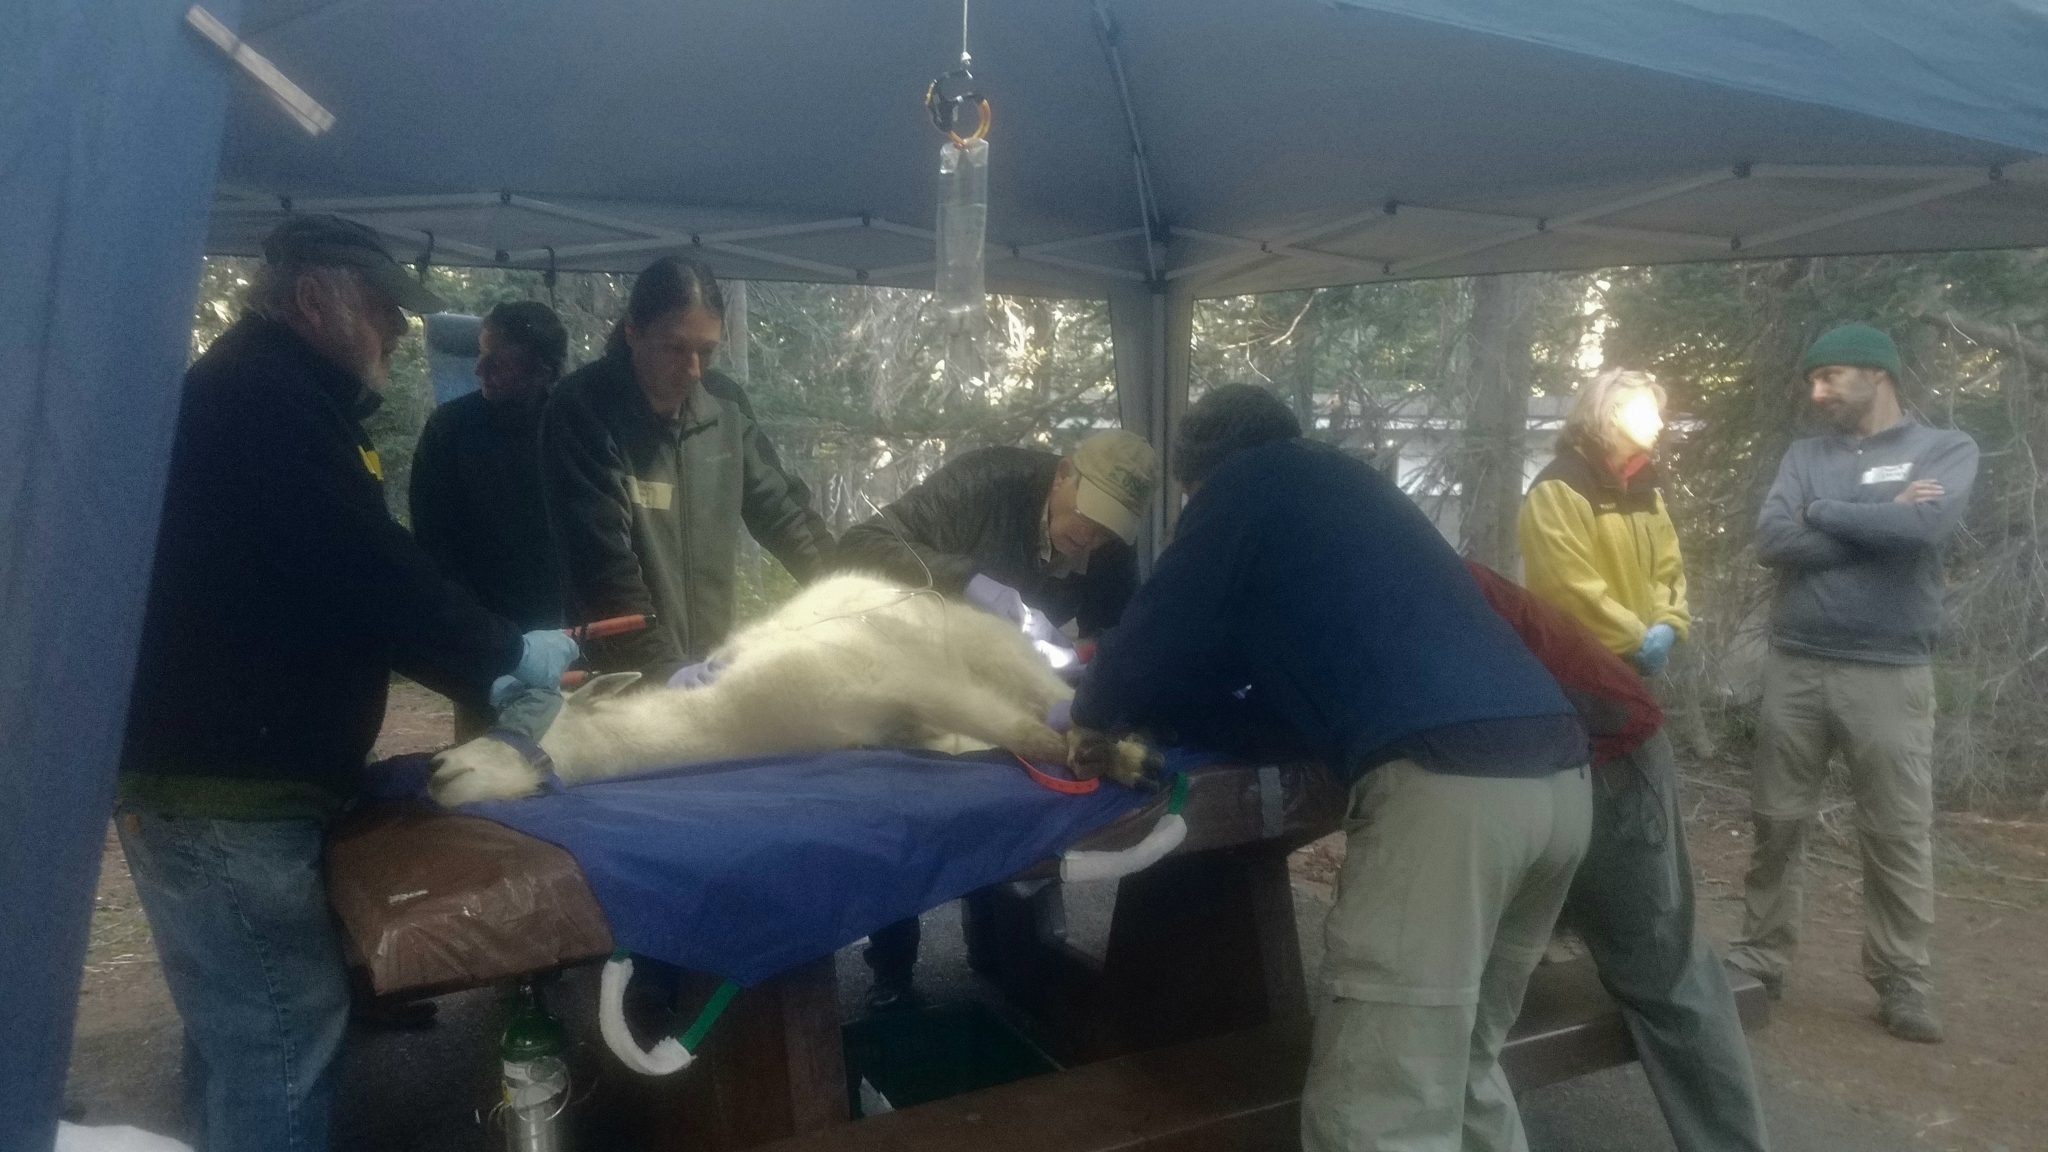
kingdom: Animalia
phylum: Chordata
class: Mammalia
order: Artiodactyla
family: Bovidae
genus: Oreamnos
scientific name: Oreamnos americanus
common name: Mountain goat
